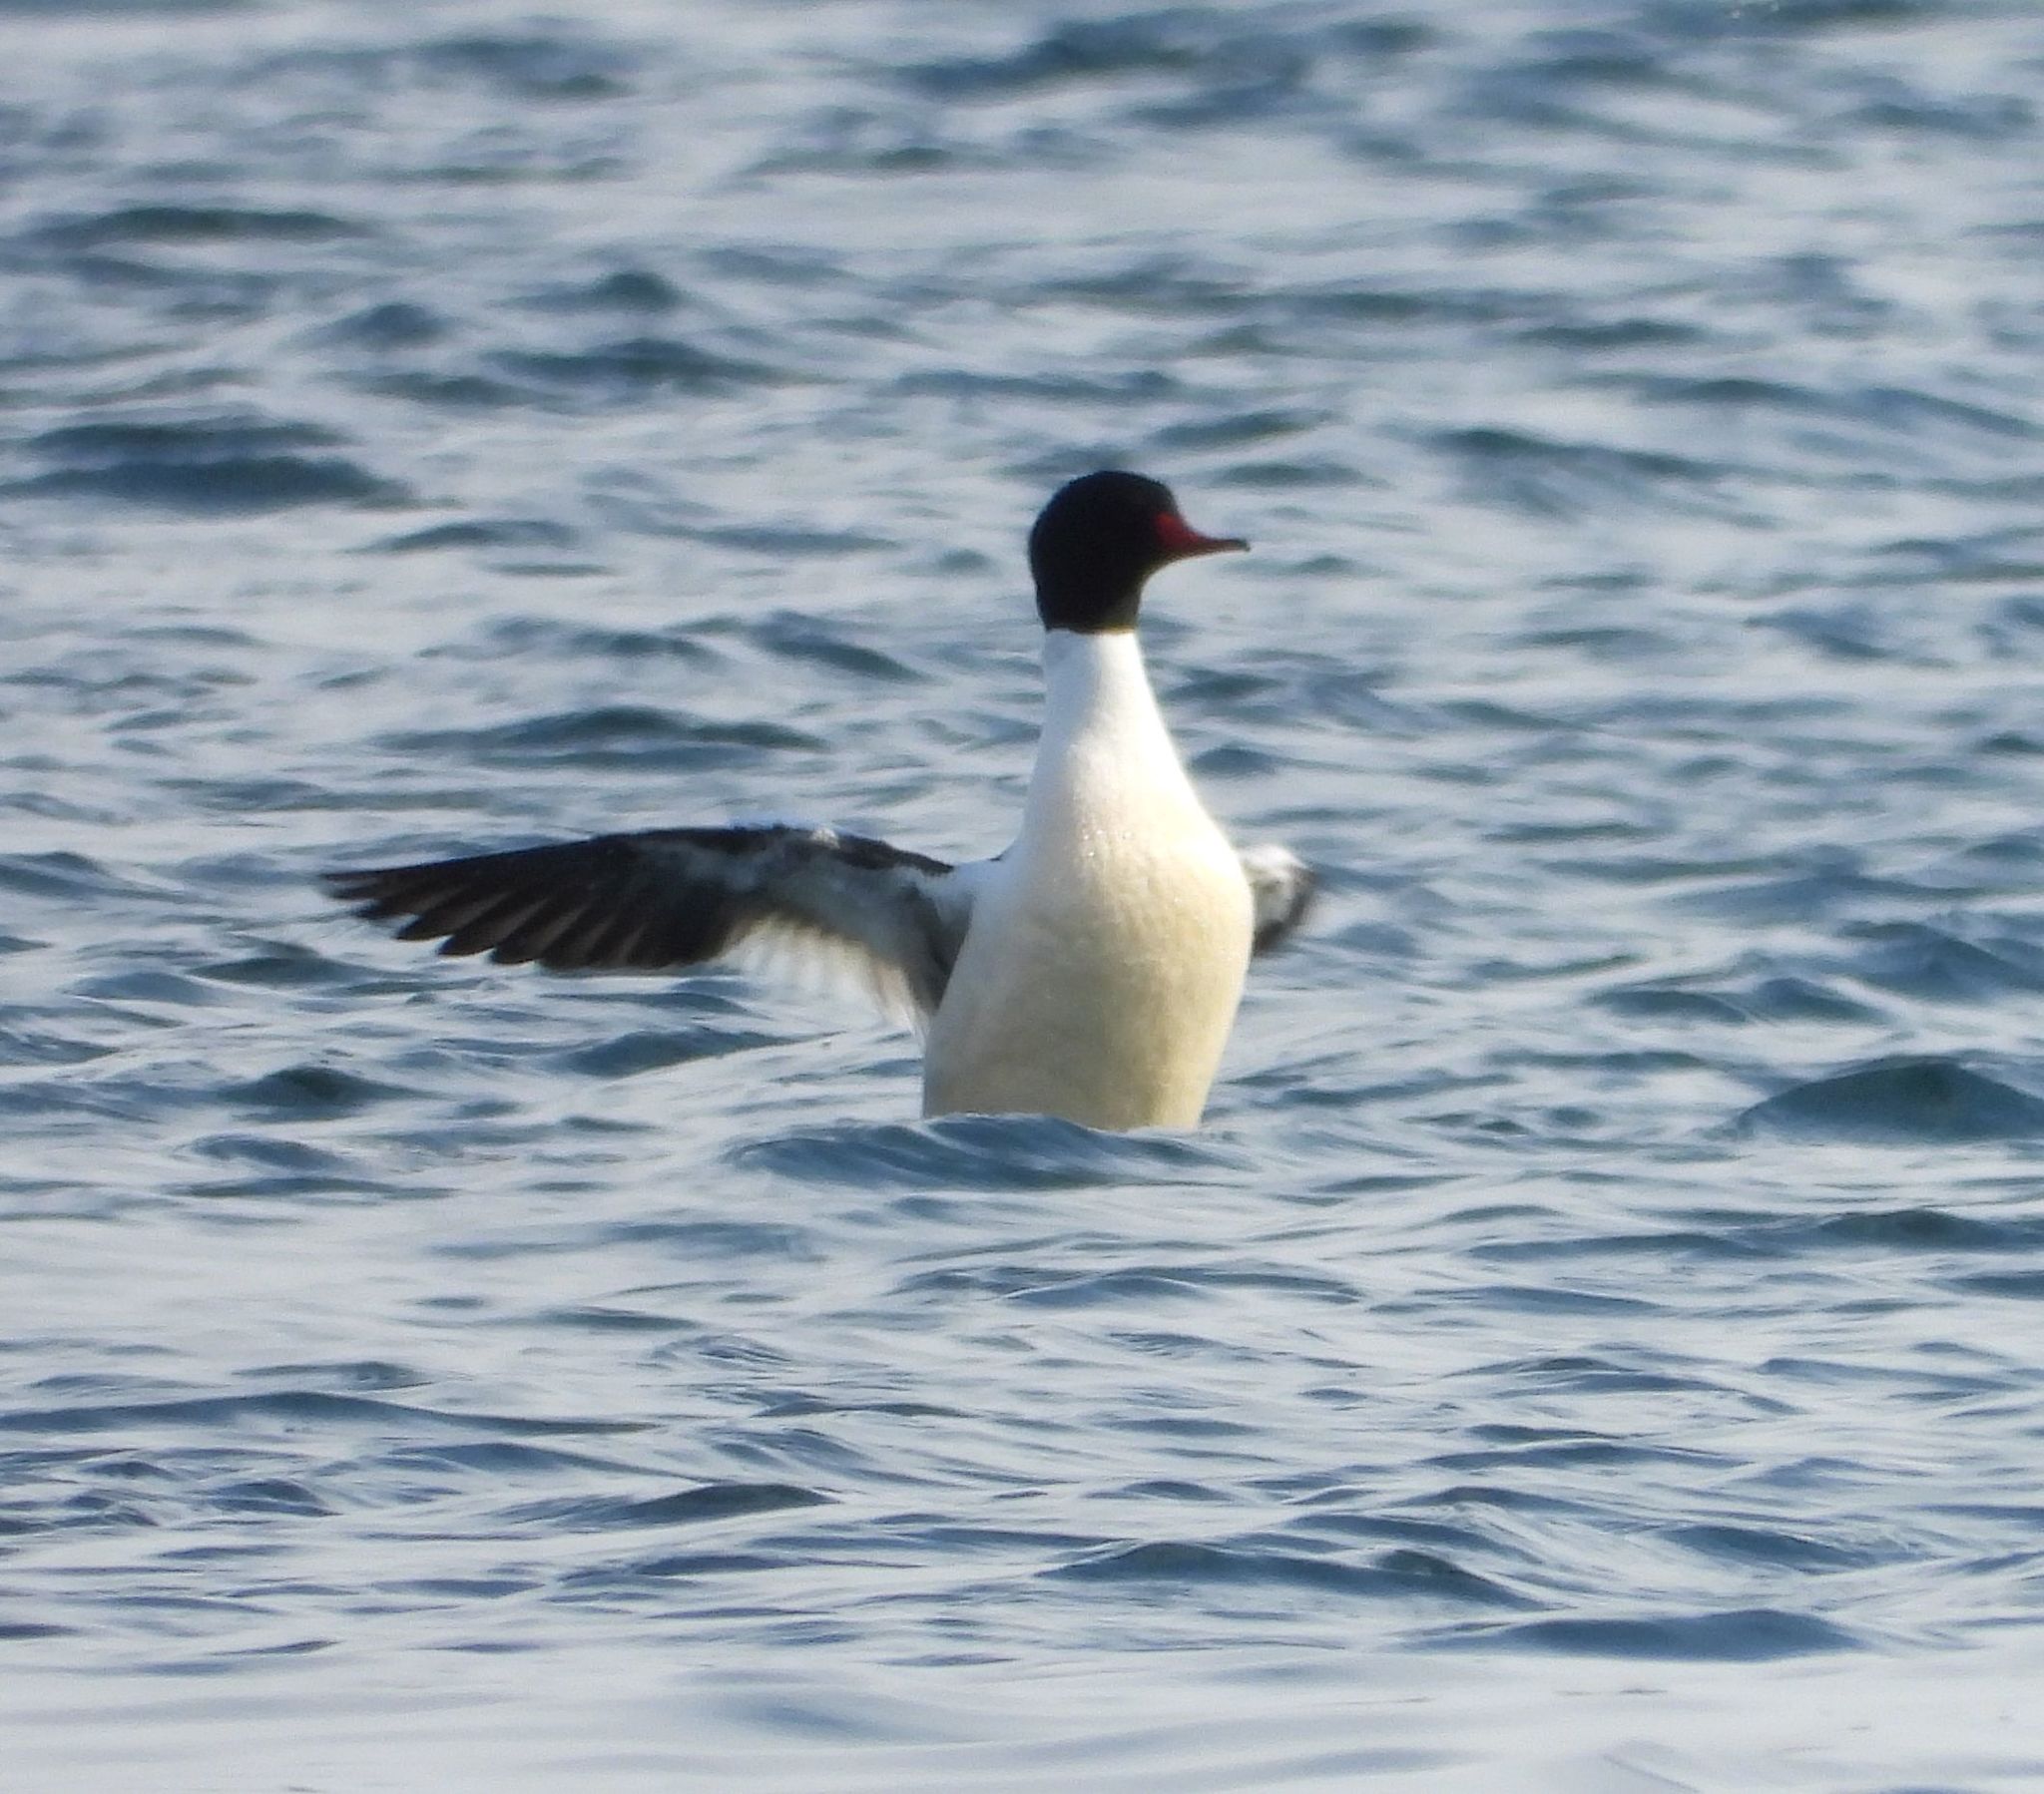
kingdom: Animalia
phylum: Chordata
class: Aves
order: Anseriformes
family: Anatidae
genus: Mergus
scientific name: Mergus merganser
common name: Common merganser
